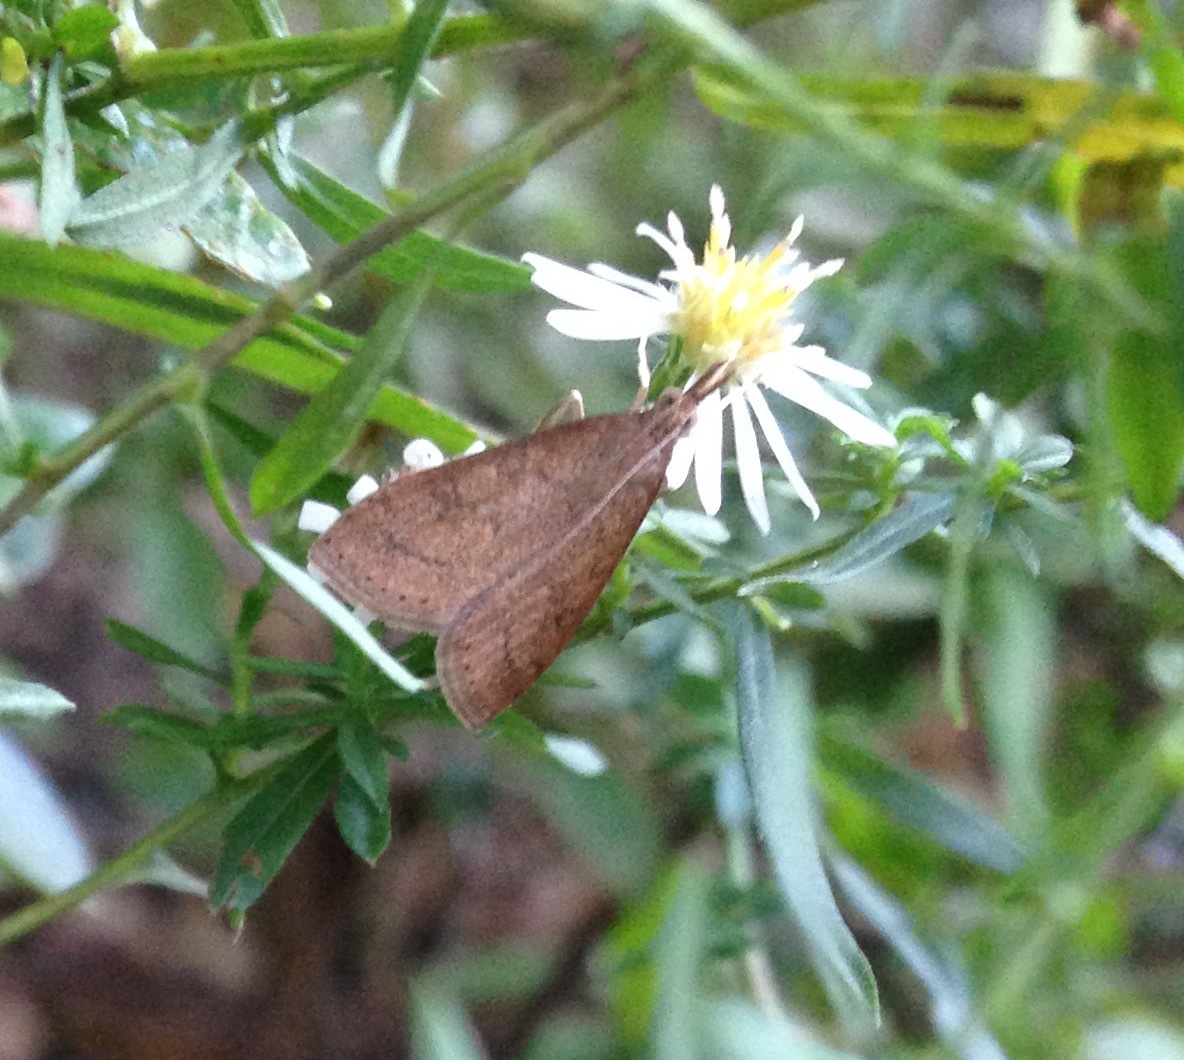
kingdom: Animalia
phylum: Arthropoda
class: Insecta
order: Lepidoptera
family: Crambidae
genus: Udea
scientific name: Udea rubigalis
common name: Celery leaftier moth
